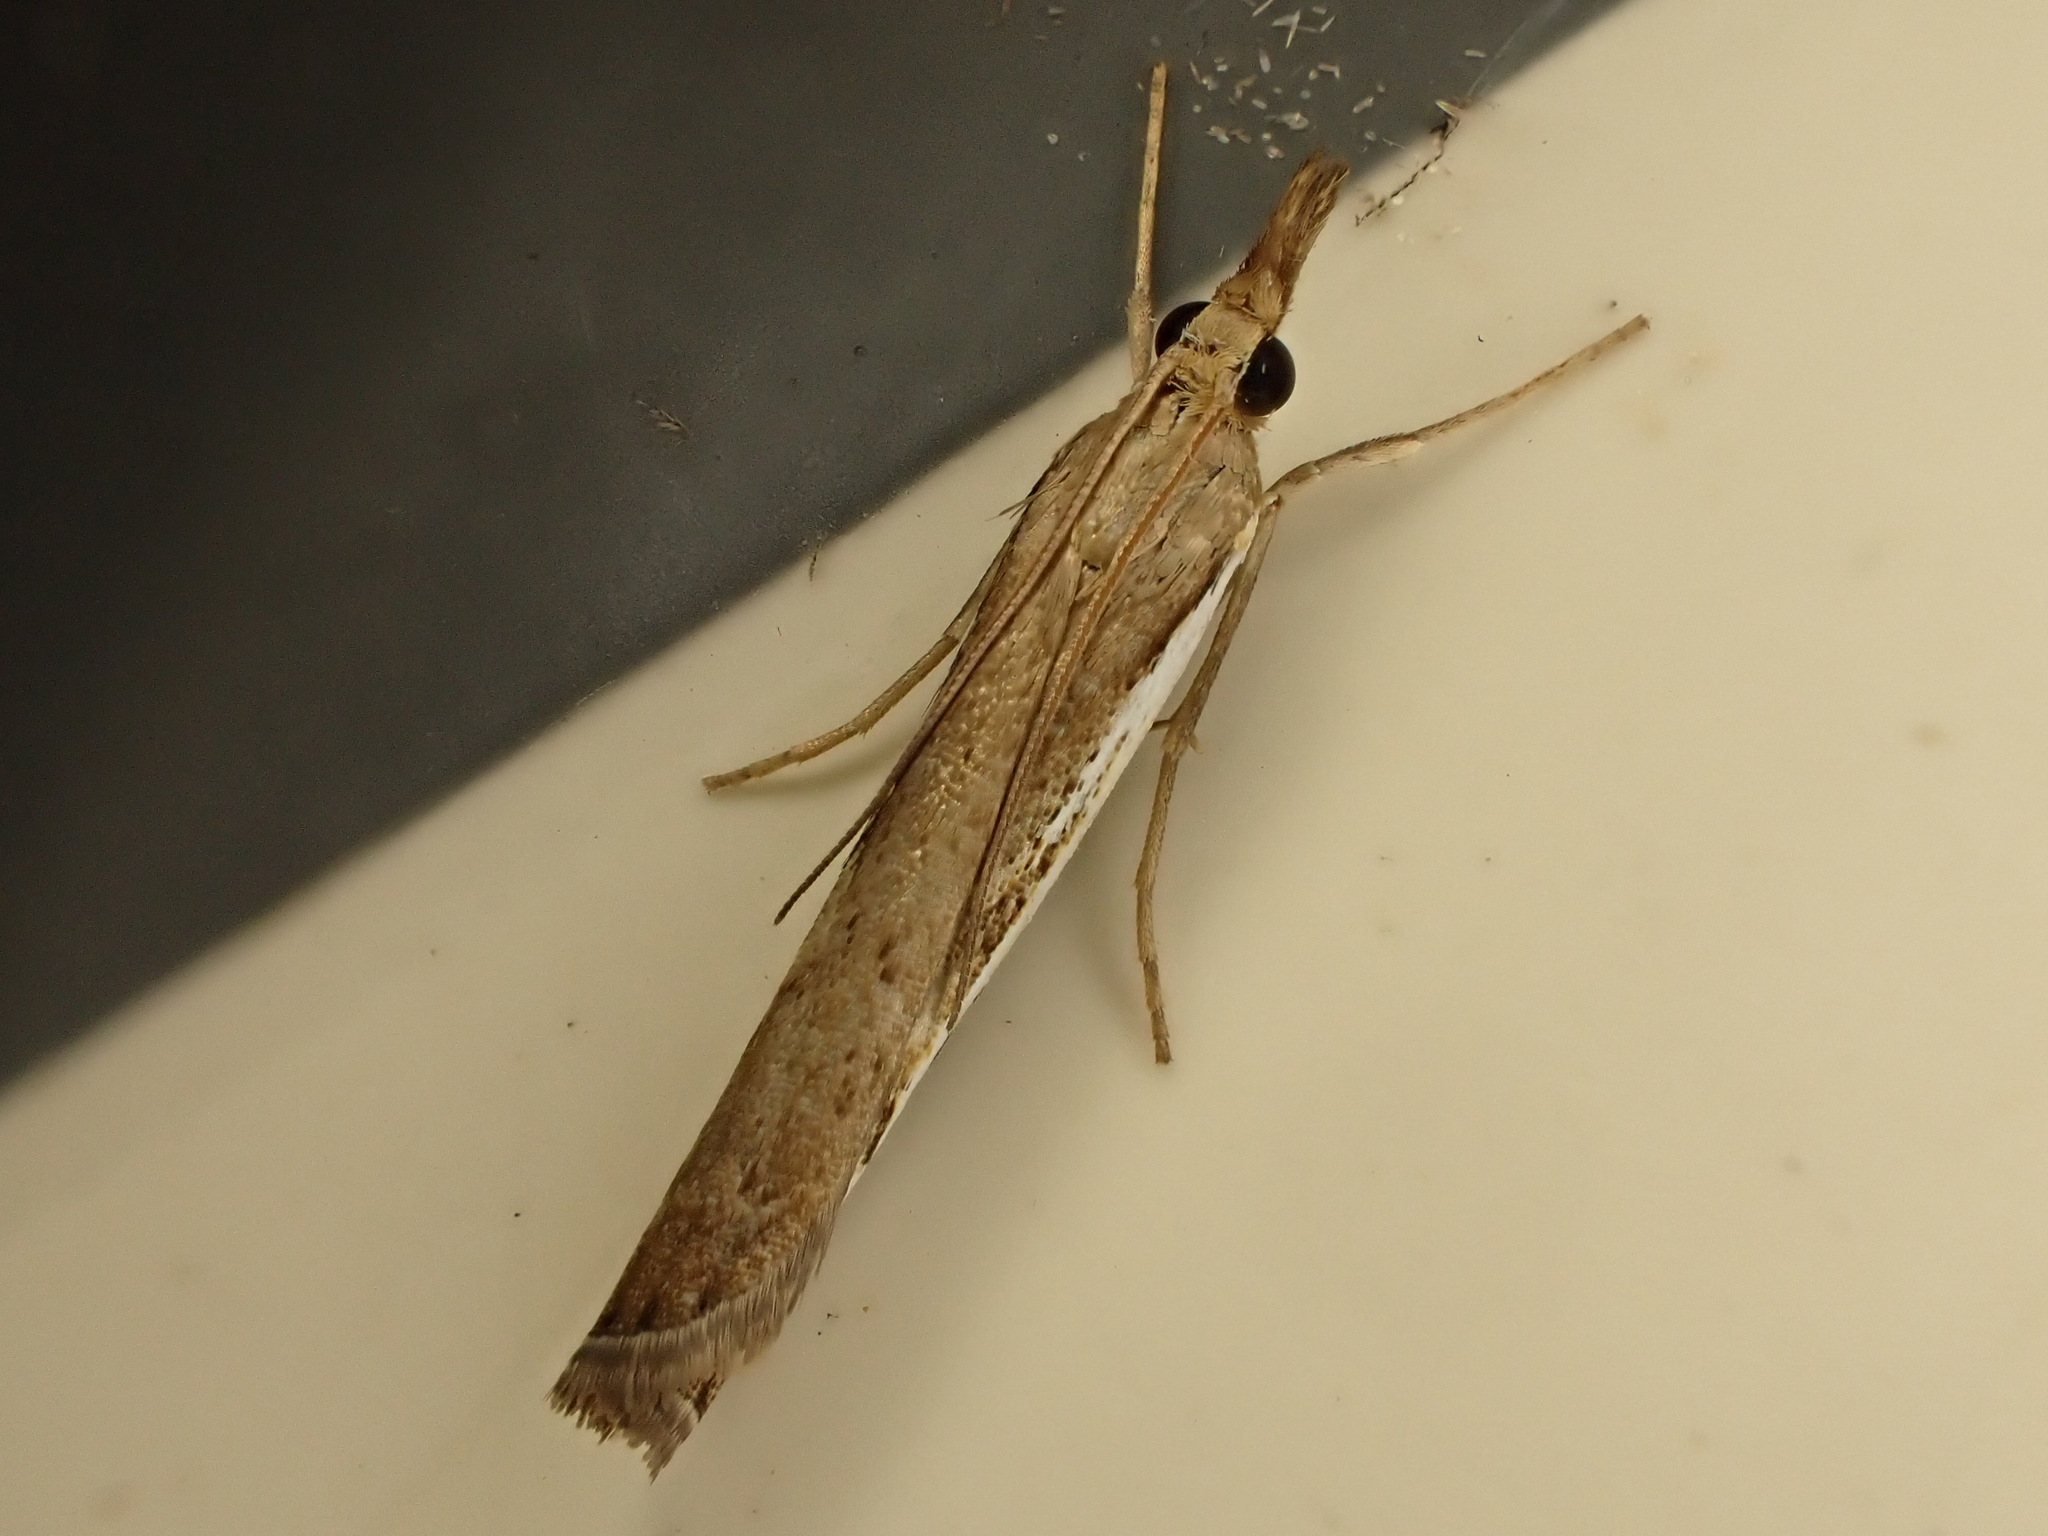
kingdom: Animalia
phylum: Arthropoda
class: Insecta
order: Lepidoptera
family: Crambidae
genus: Orocrambus
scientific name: Orocrambus flexuosellus
